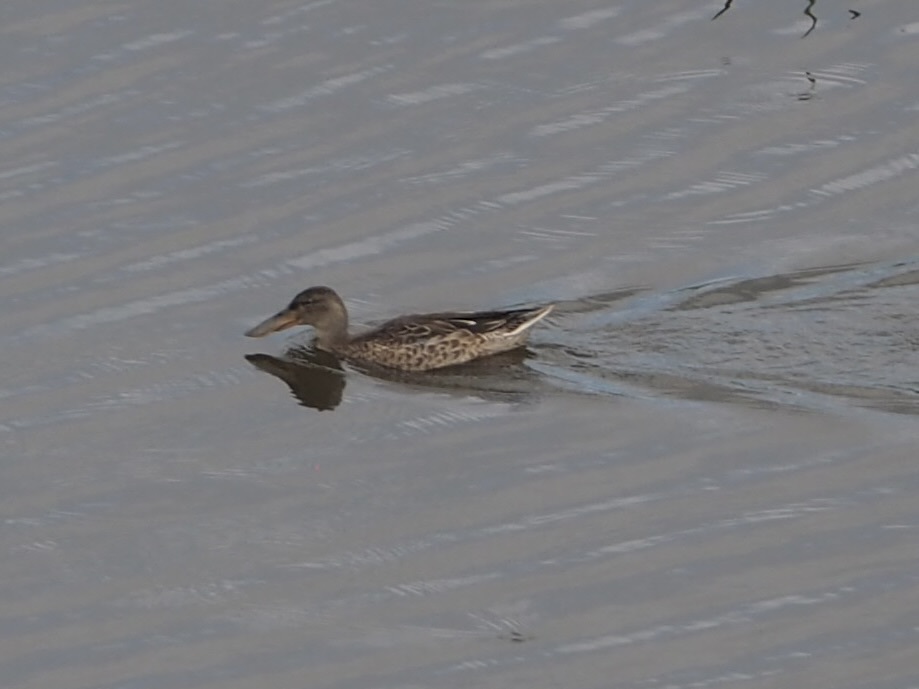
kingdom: Animalia
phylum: Chordata
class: Aves
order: Anseriformes
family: Anatidae
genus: Spatula
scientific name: Spatula clypeata
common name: Northern shoveler
